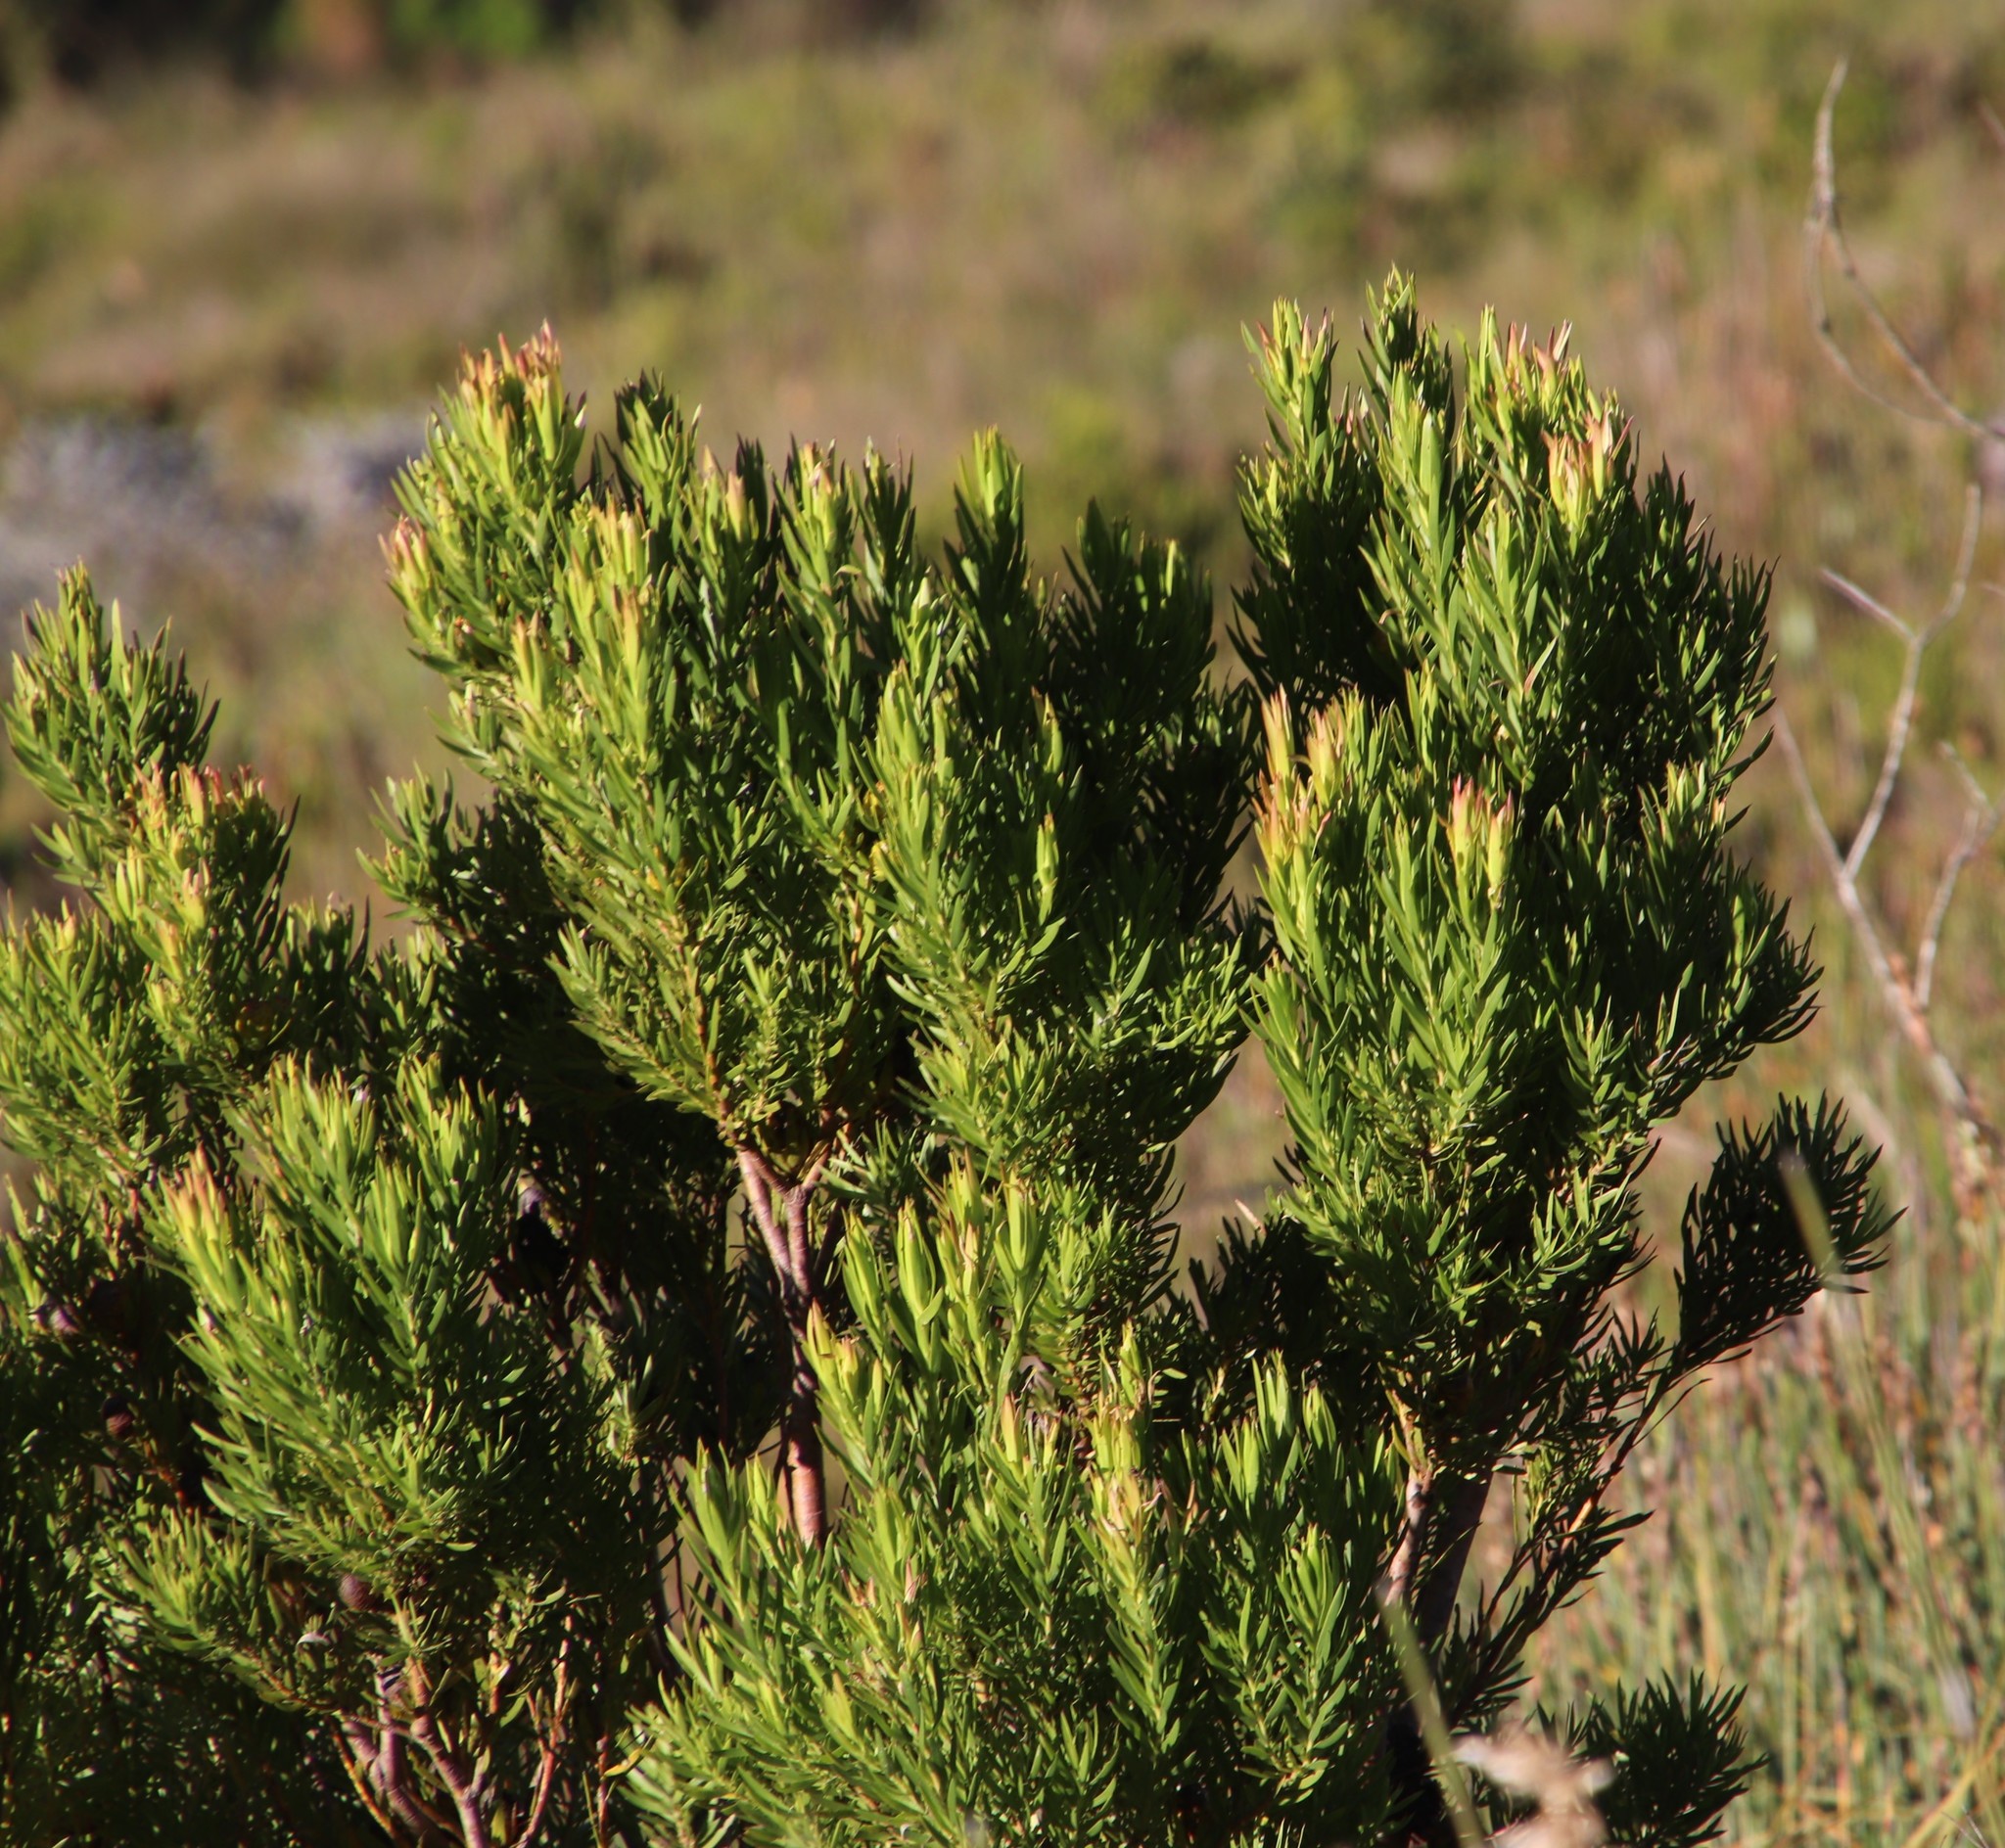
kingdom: Plantae
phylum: Tracheophyta
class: Magnoliopsida
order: Proteales
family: Proteaceae
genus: Leucadendron
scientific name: Leucadendron xanthoconus
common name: Sickle-leaf conebush
